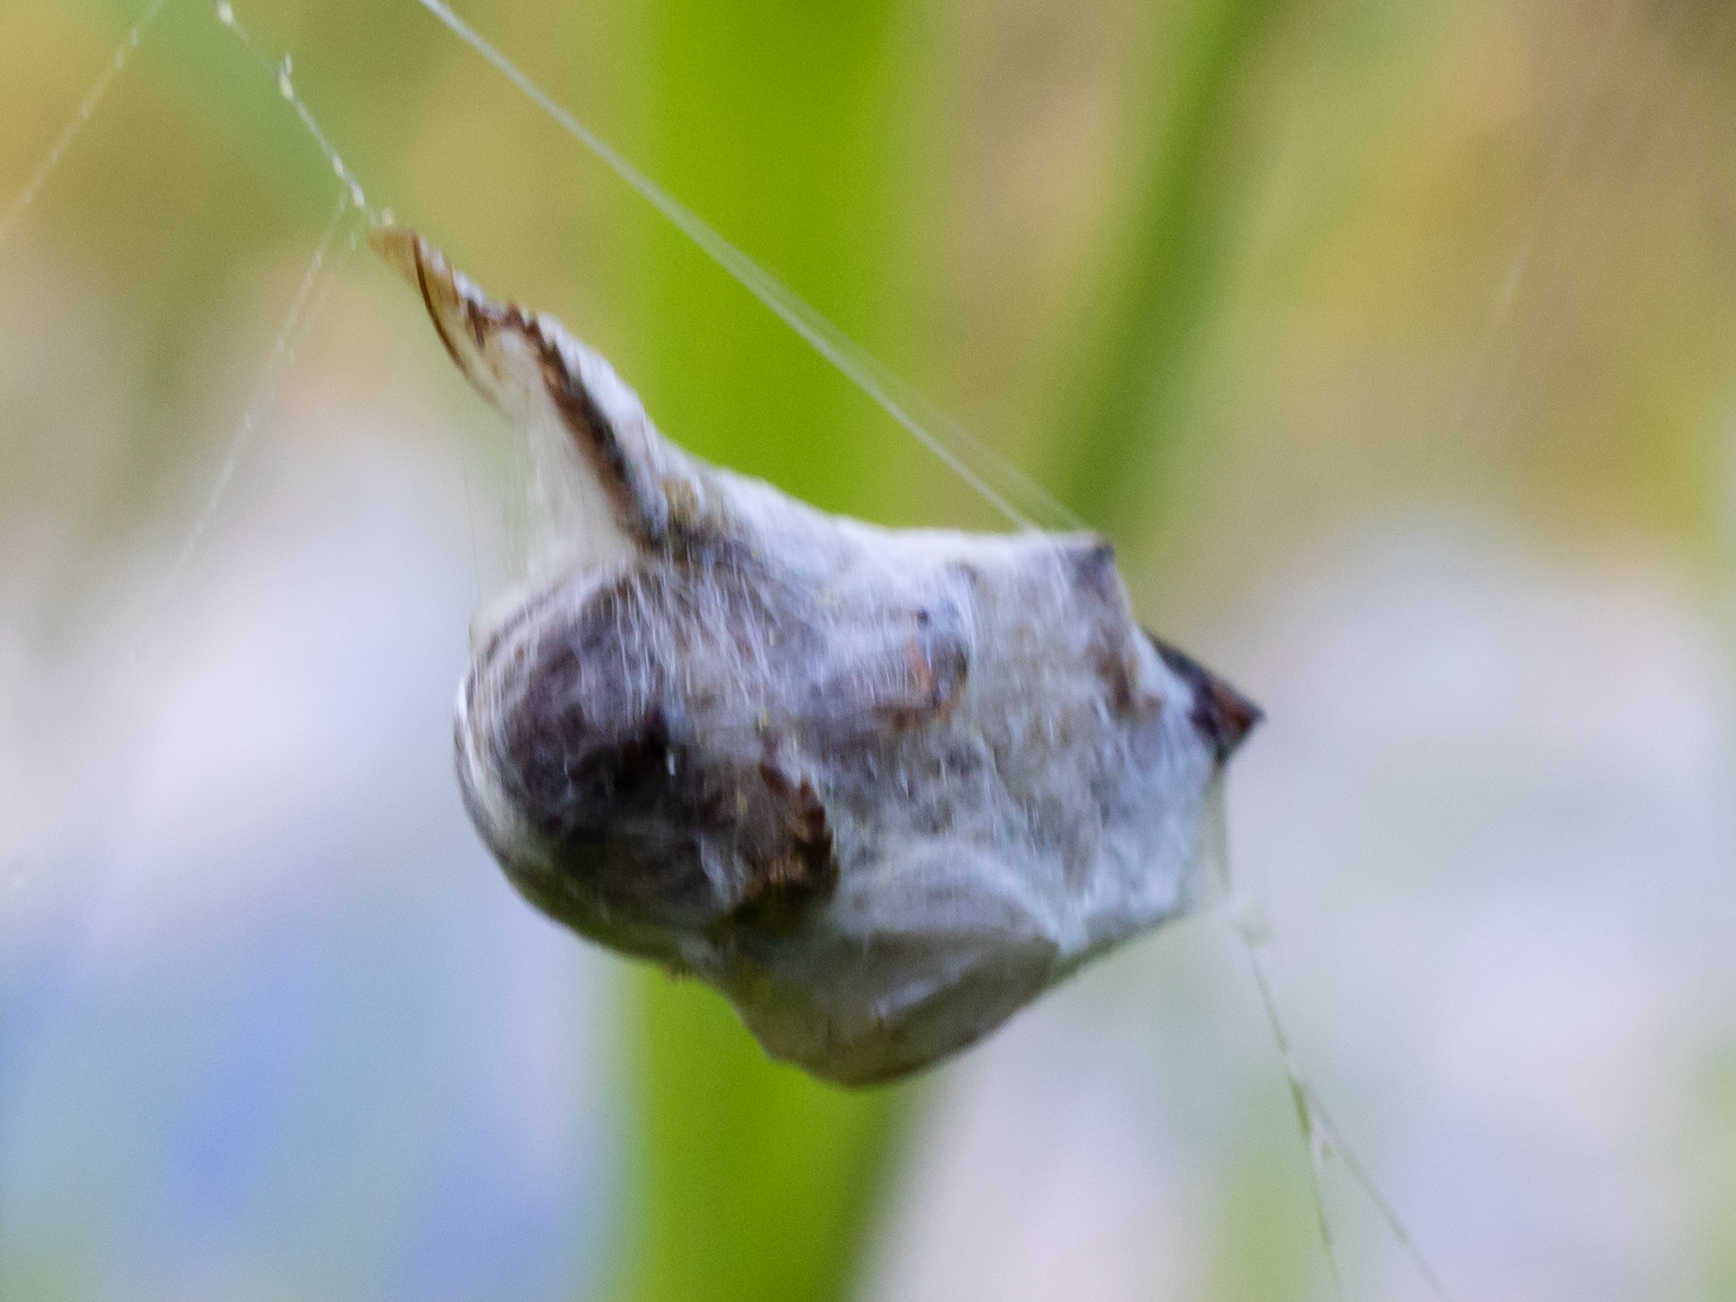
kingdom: Animalia
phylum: Arthropoda
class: Arachnida
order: Araneae
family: Araneidae
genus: Argiope
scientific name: Argiope trifasciata
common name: Banded garden spider
